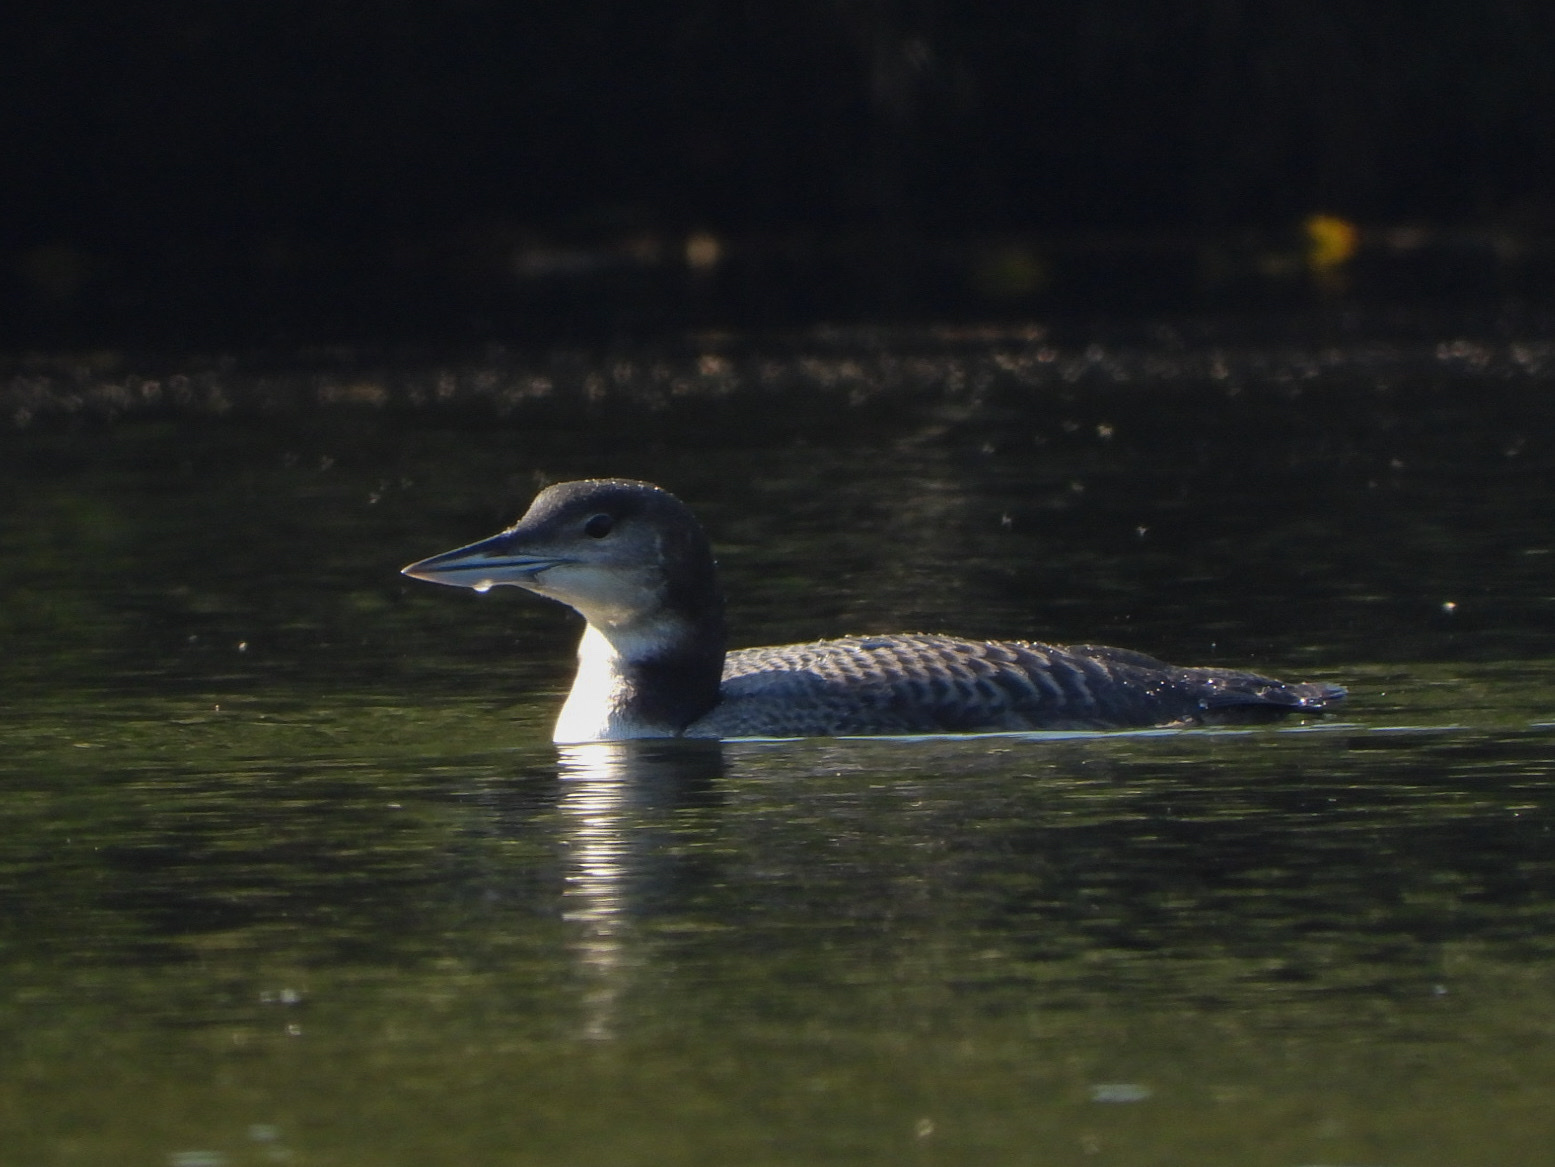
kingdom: Animalia
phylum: Chordata
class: Aves
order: Gaviiformes
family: Gaviidae
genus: Gavia
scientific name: Gavia immer
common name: Common loon
